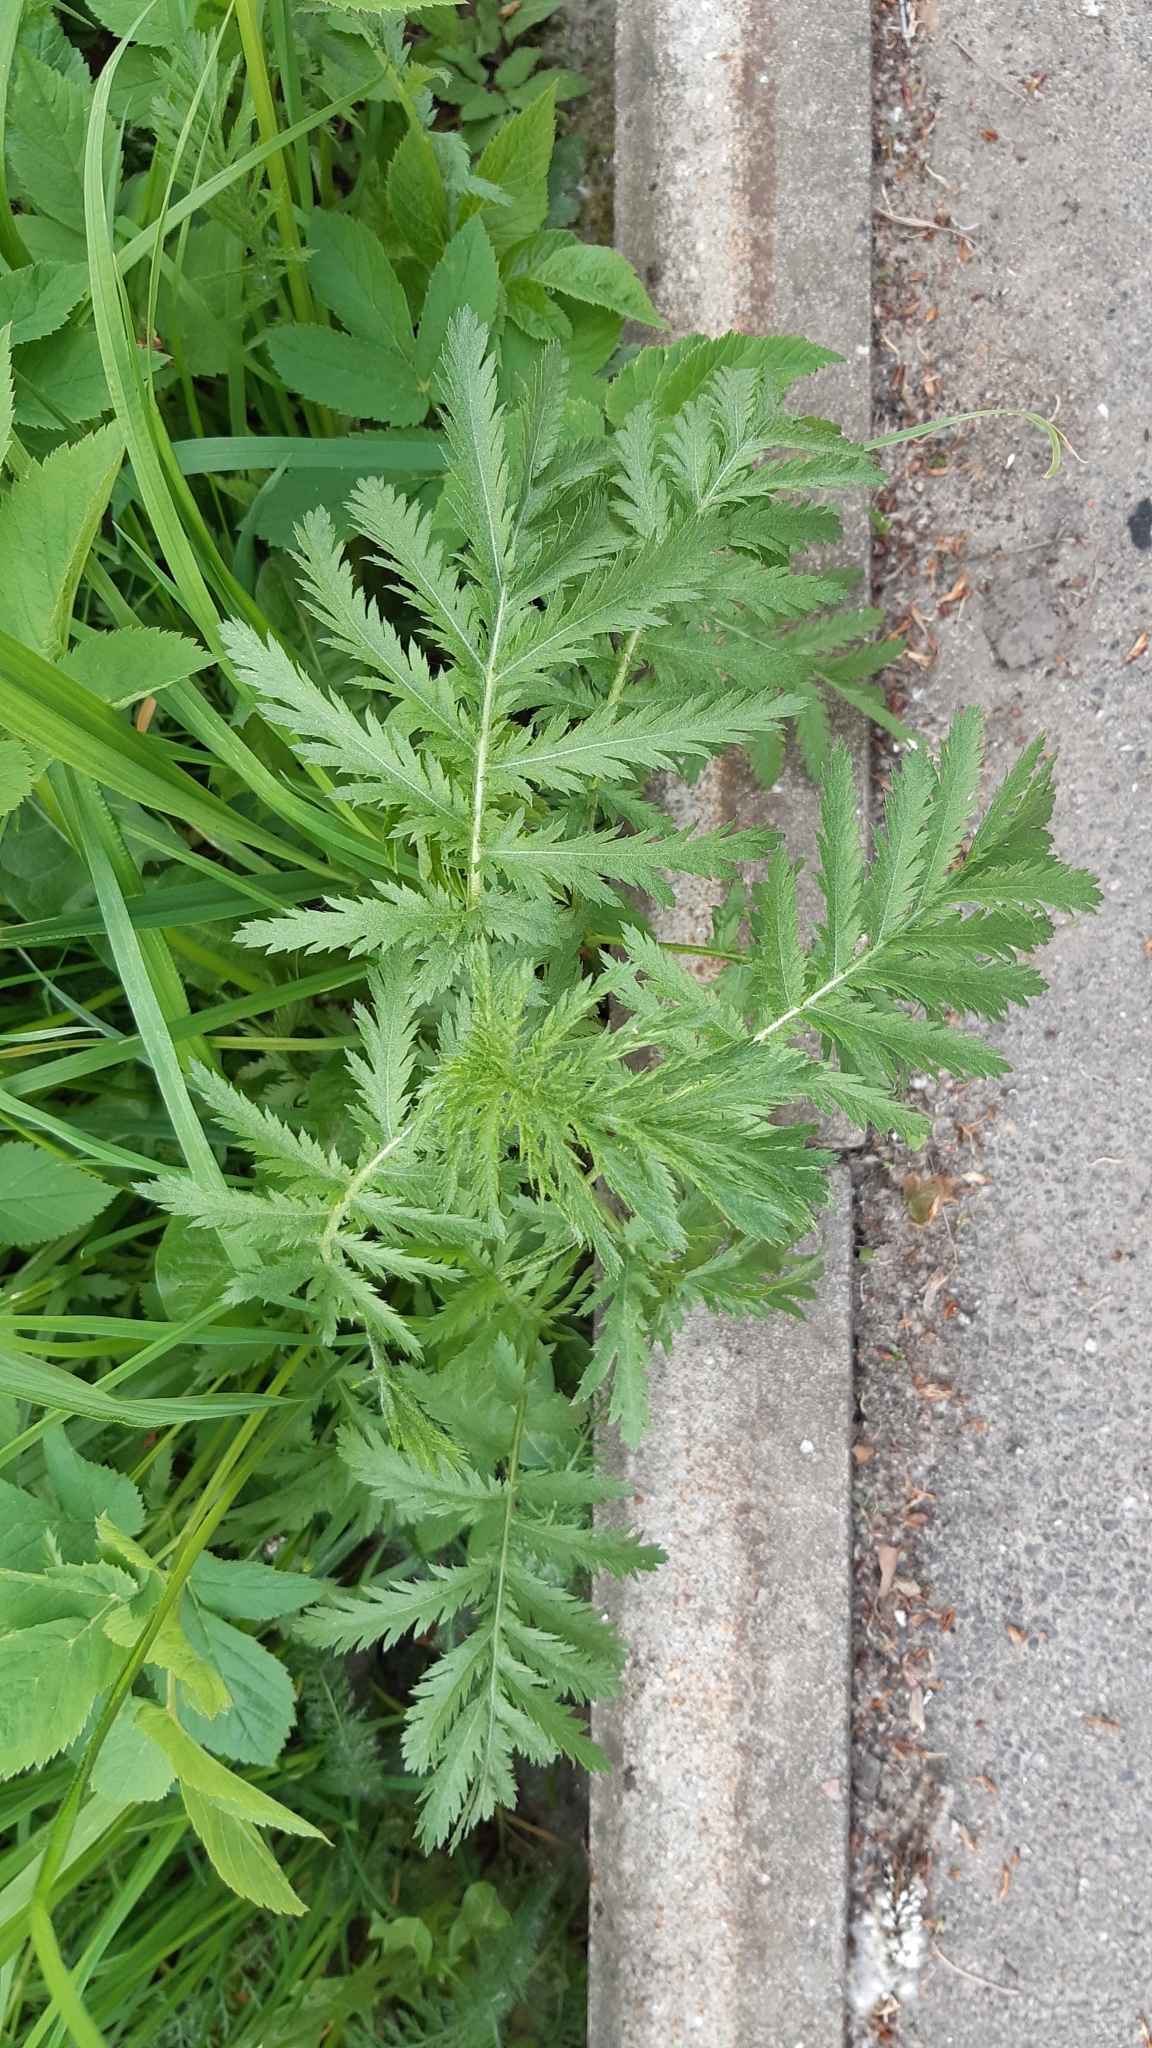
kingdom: Plantae
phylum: Tracheophyta
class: Magnoliopsida
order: Asterales
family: Asteraceae
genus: Tanacetum
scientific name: Tanacetum vulgare
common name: Common tansy
